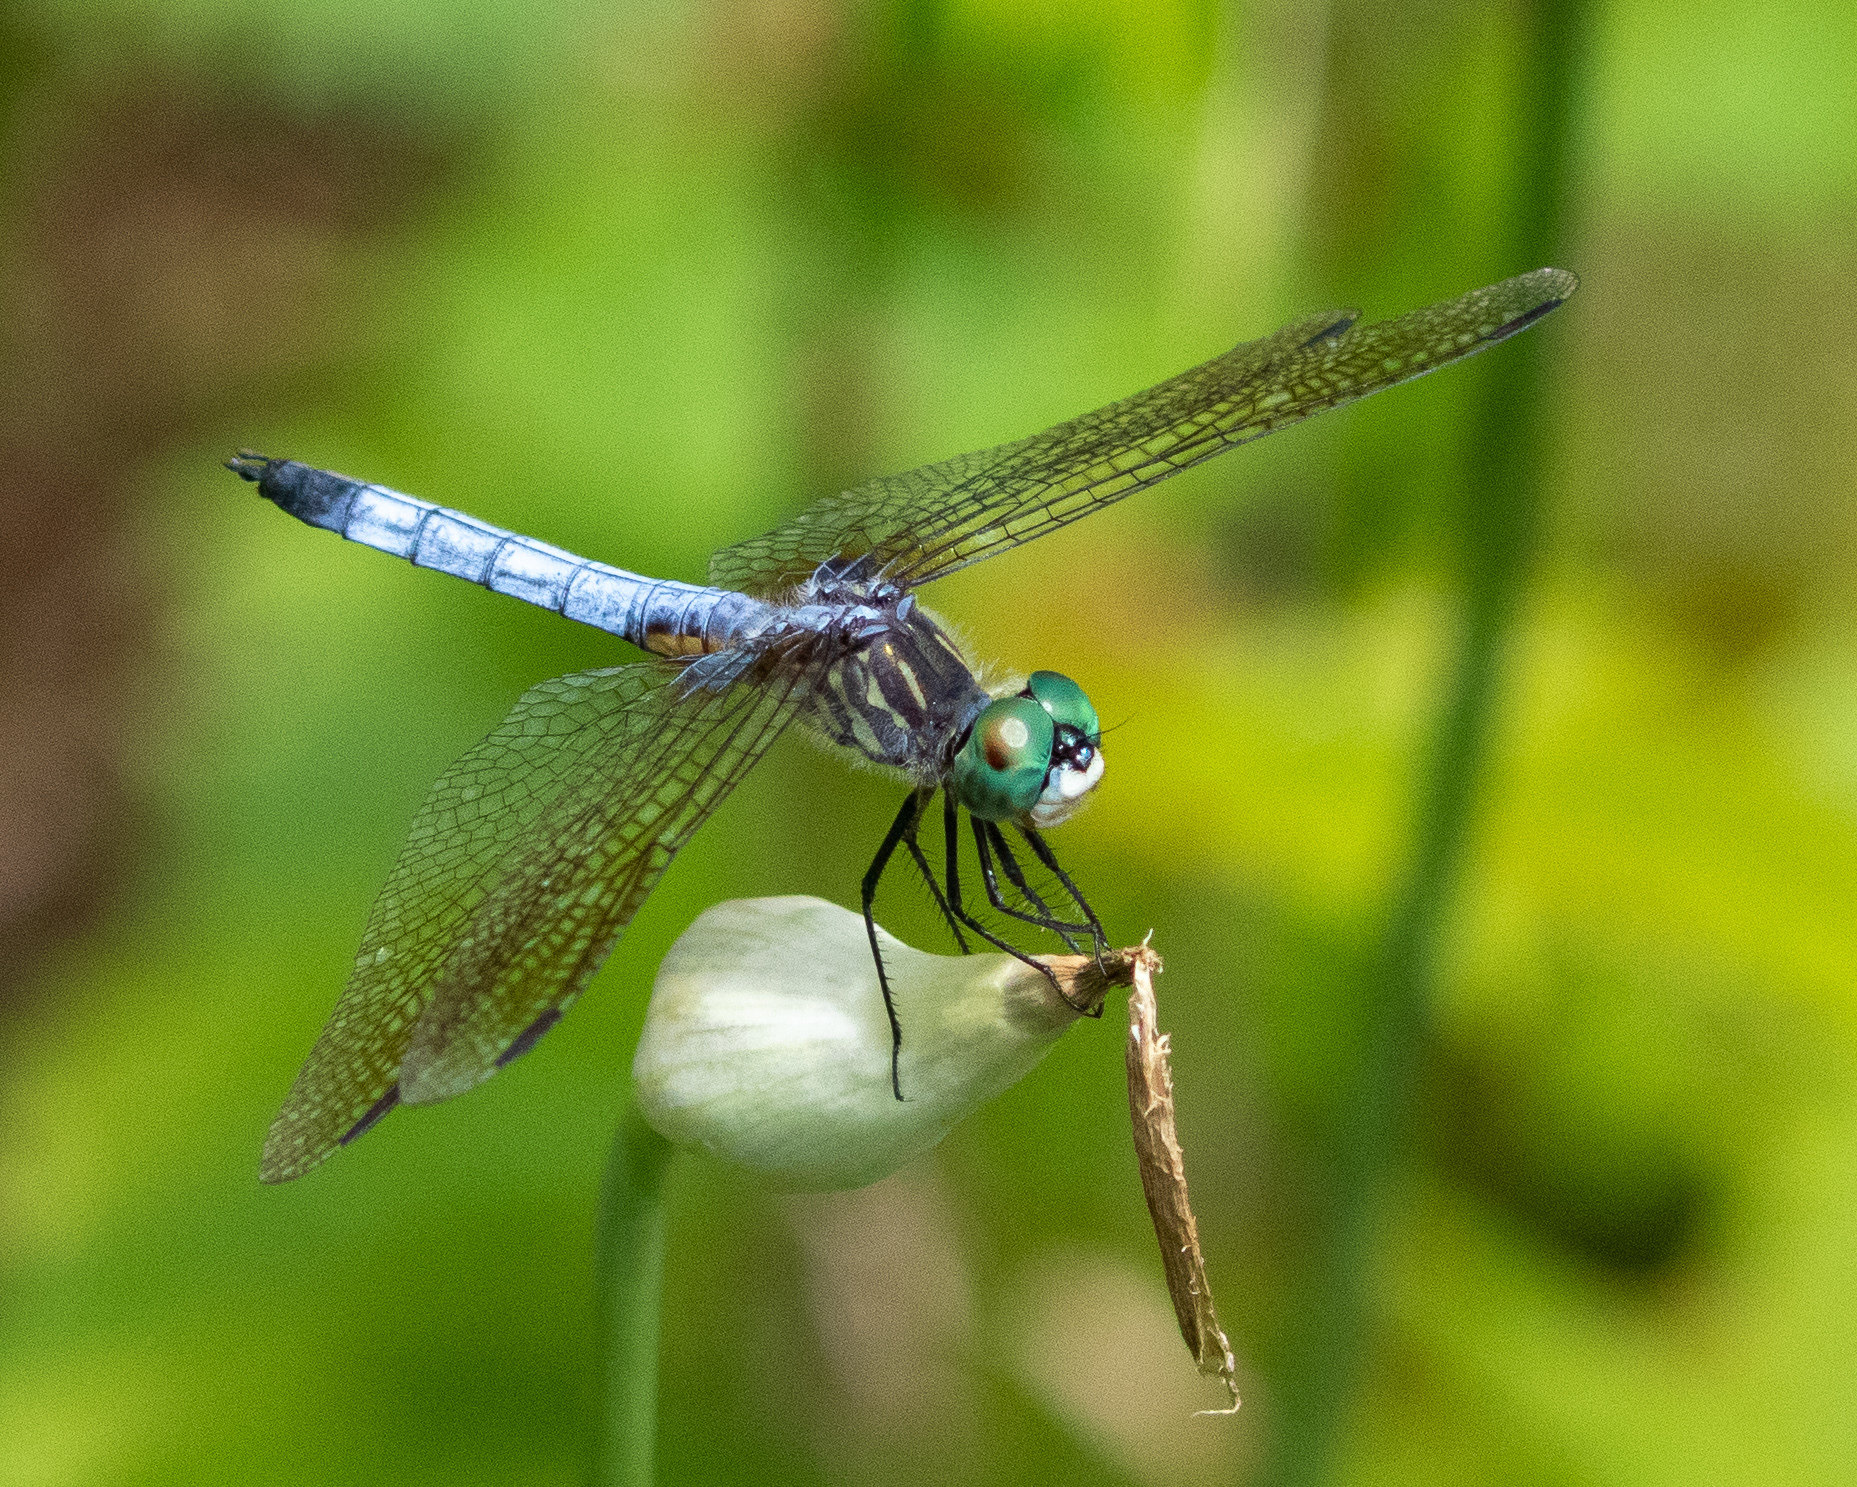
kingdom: Animalia
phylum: Arthropoda
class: Insecta
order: Odonata
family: Libellulidae
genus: Pachydiplax
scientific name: Pachydiplax longipennis
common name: Blue dasher
